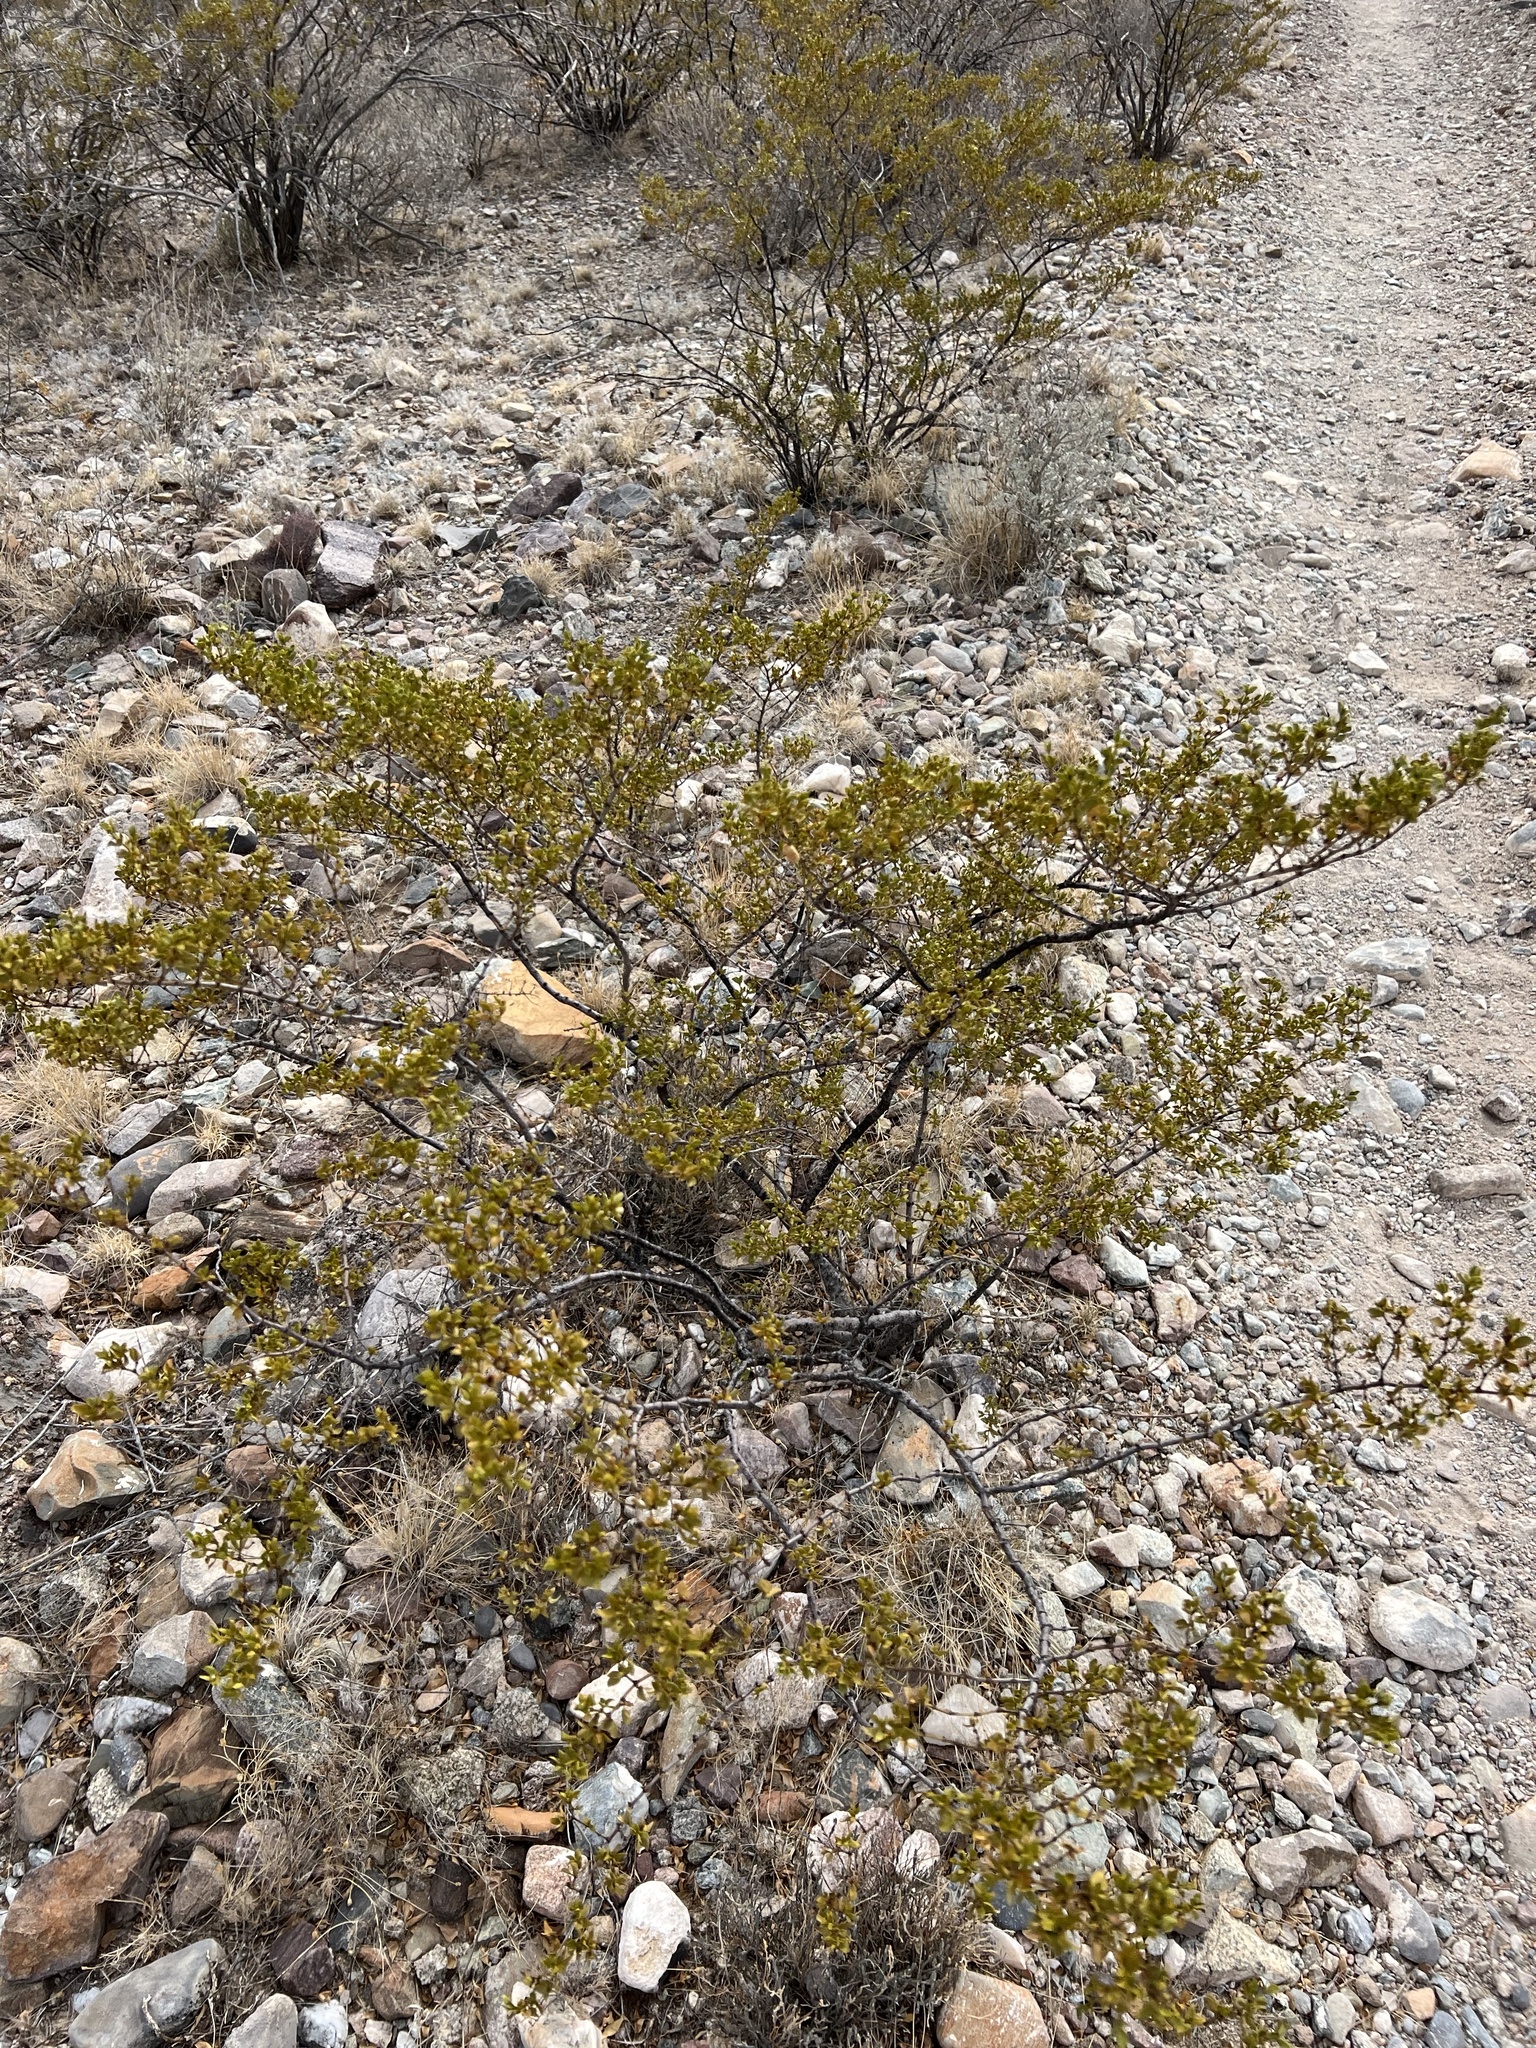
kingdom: Plantae
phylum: Tracheophyta
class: Magnoliopsida
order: Zygophyllales
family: Zygophyllaceae
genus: Larrea
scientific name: Larrea tridentata
